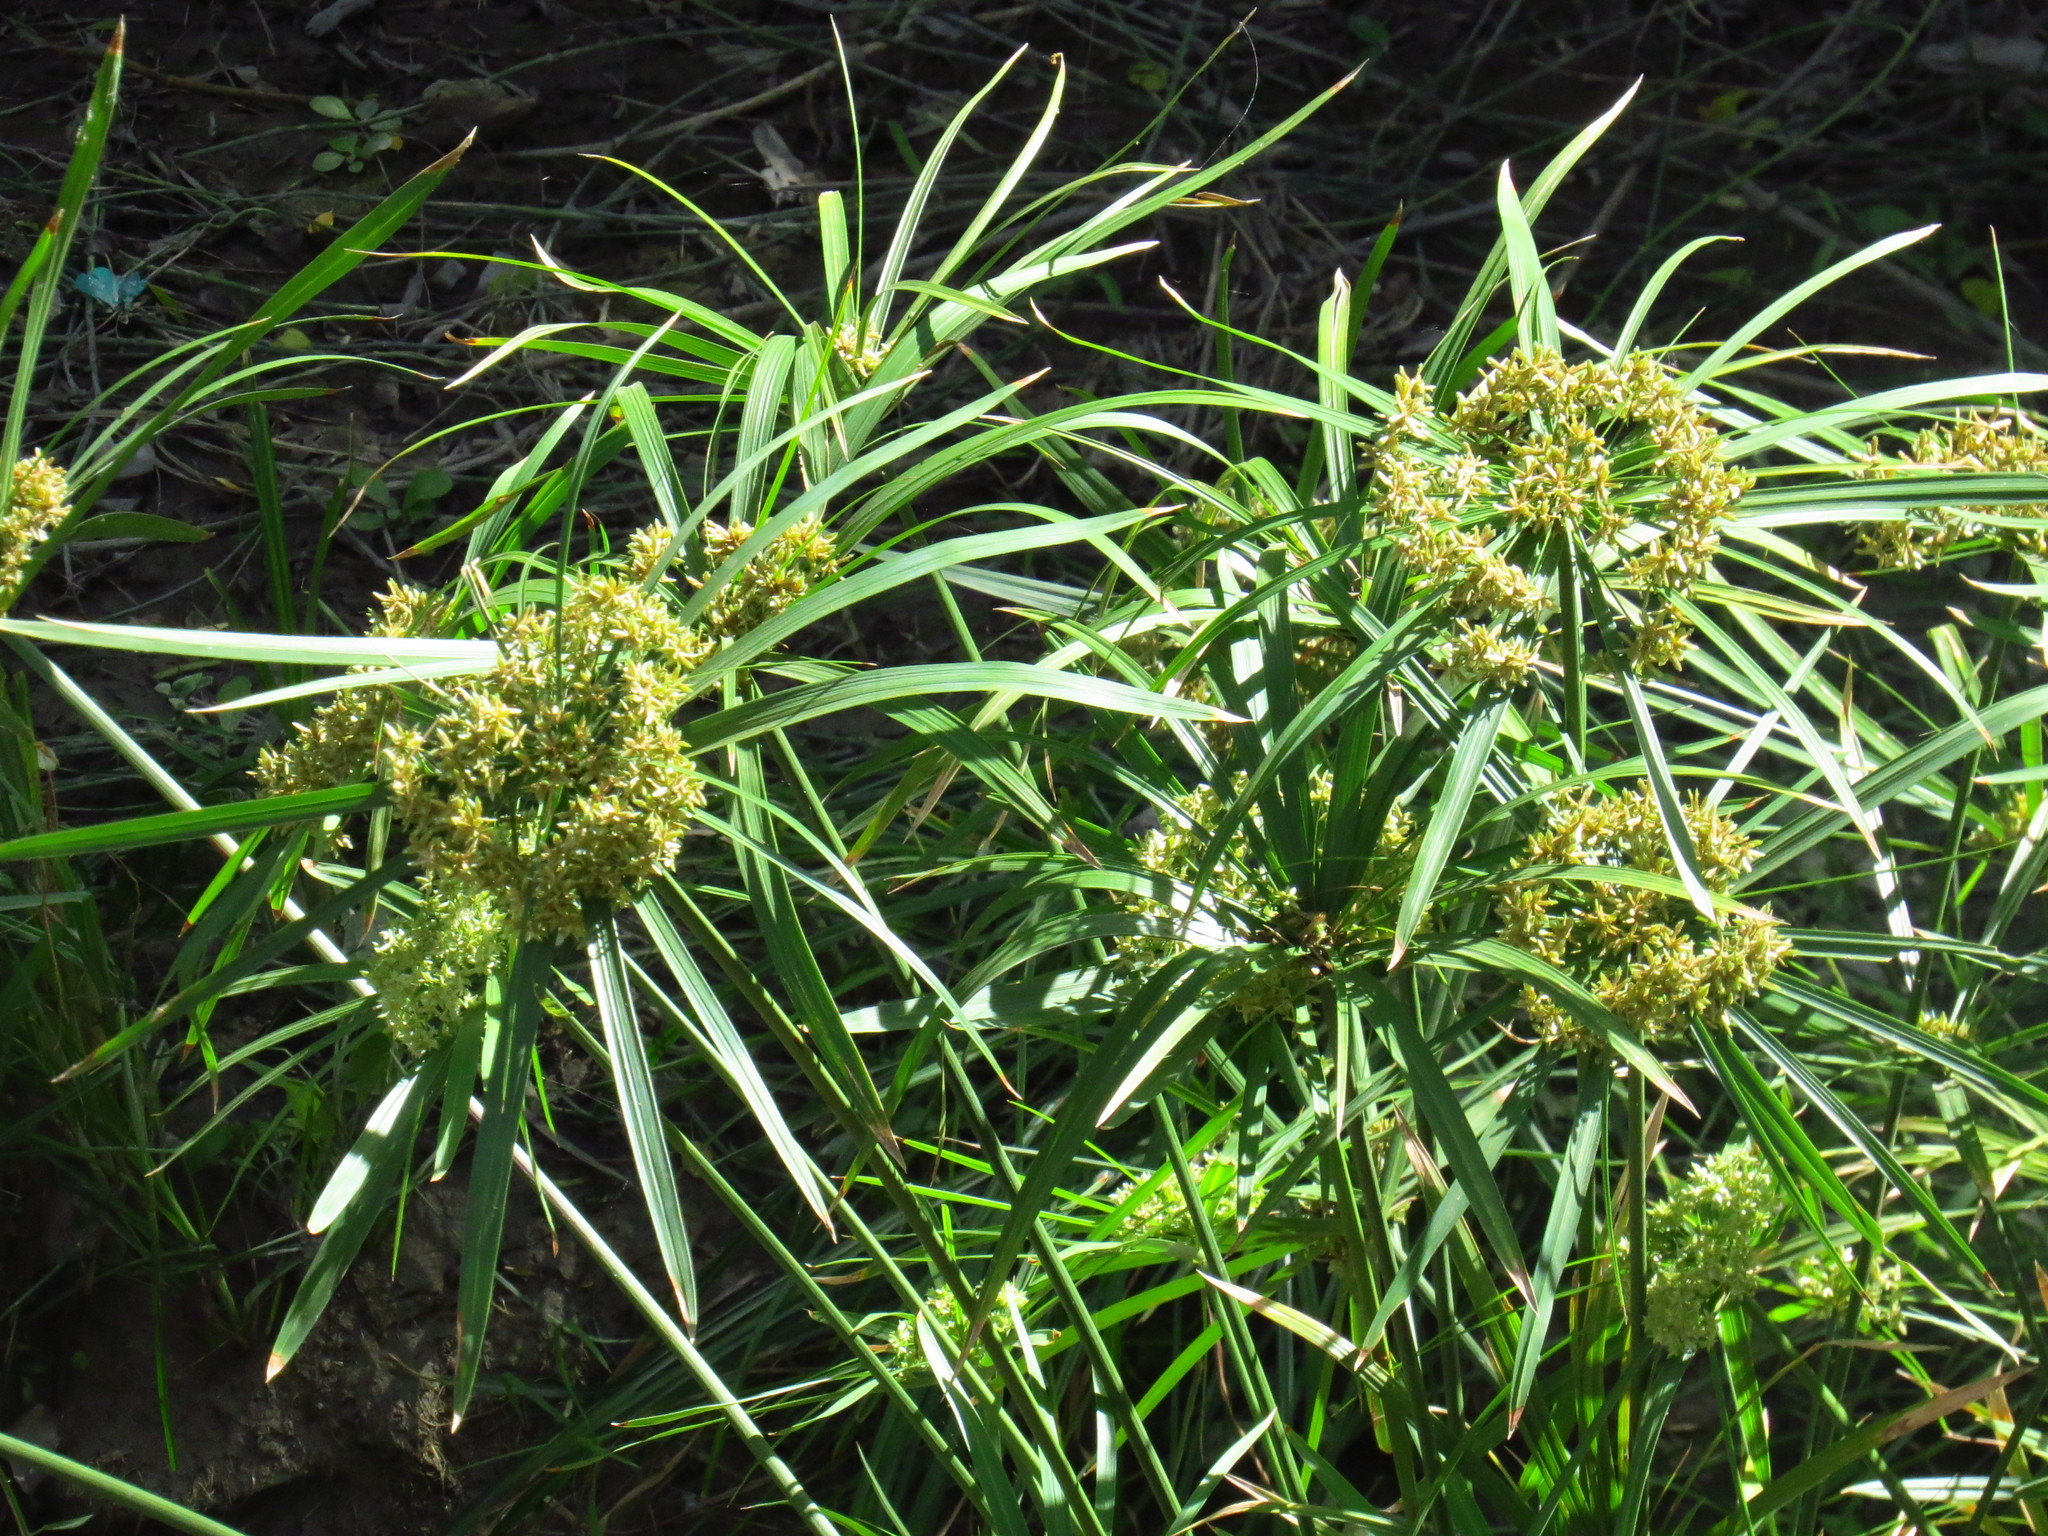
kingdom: Plantae
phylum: Tracheophyta
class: Liliopsida
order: Poales
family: Cyperaceae
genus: Cyperus
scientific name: Cyperus alternifolius
